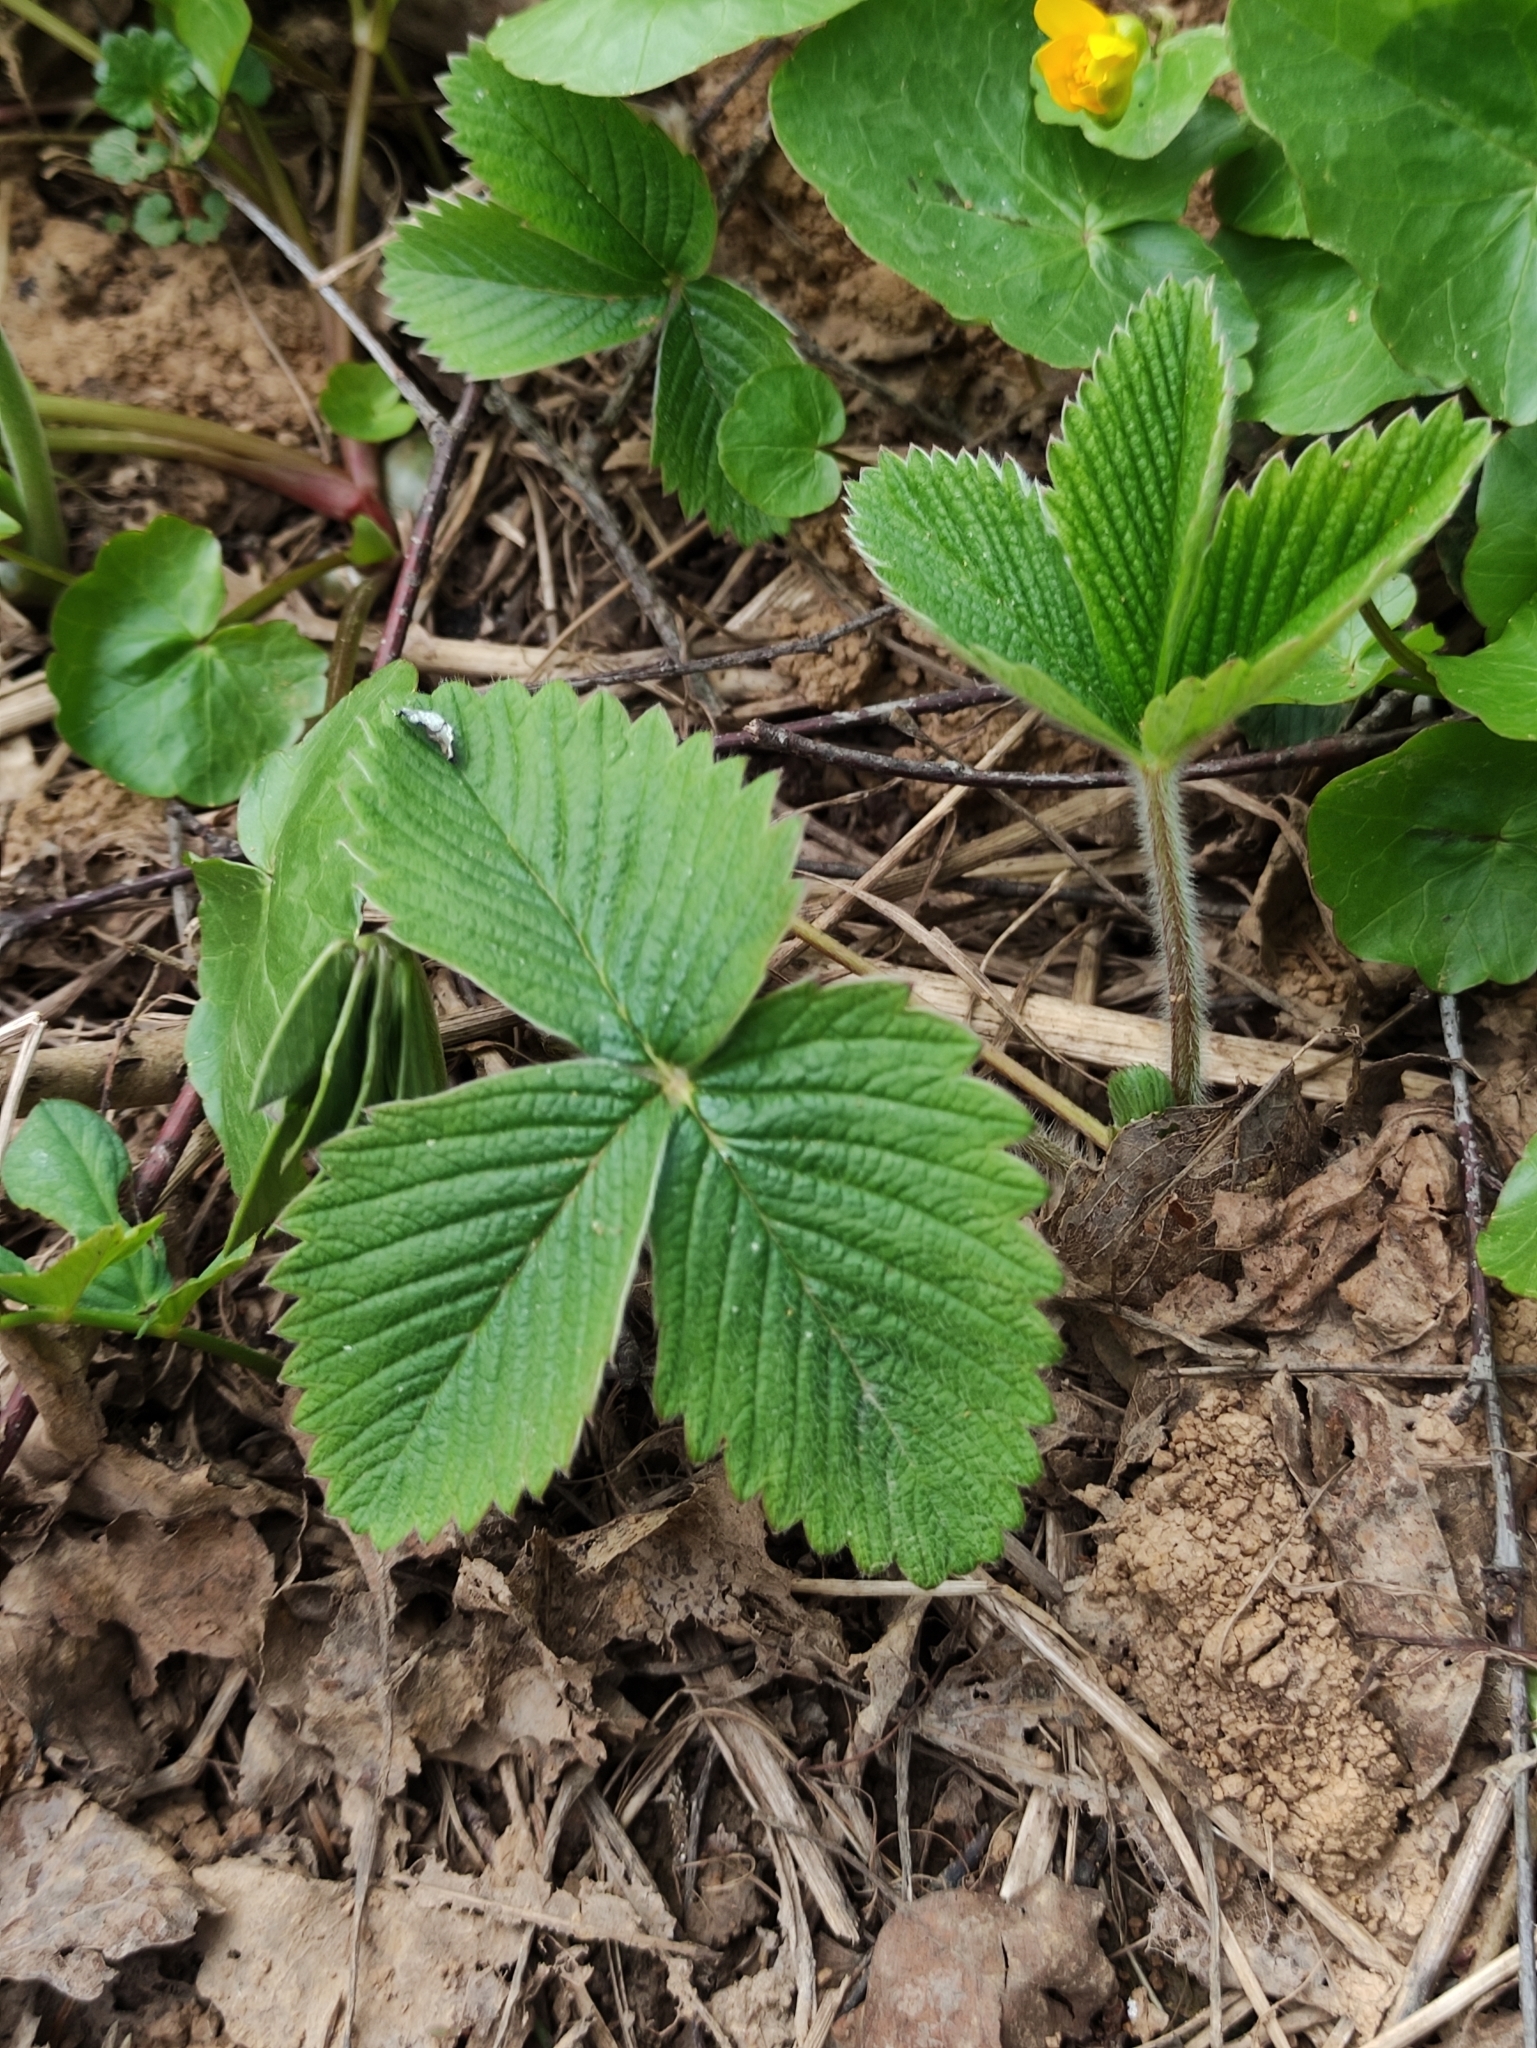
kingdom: Plantae
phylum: Tracheophyta
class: Magnoliopsida
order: Rosales
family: Rosaceae
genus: Fragaria
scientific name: Fragaria moschata
